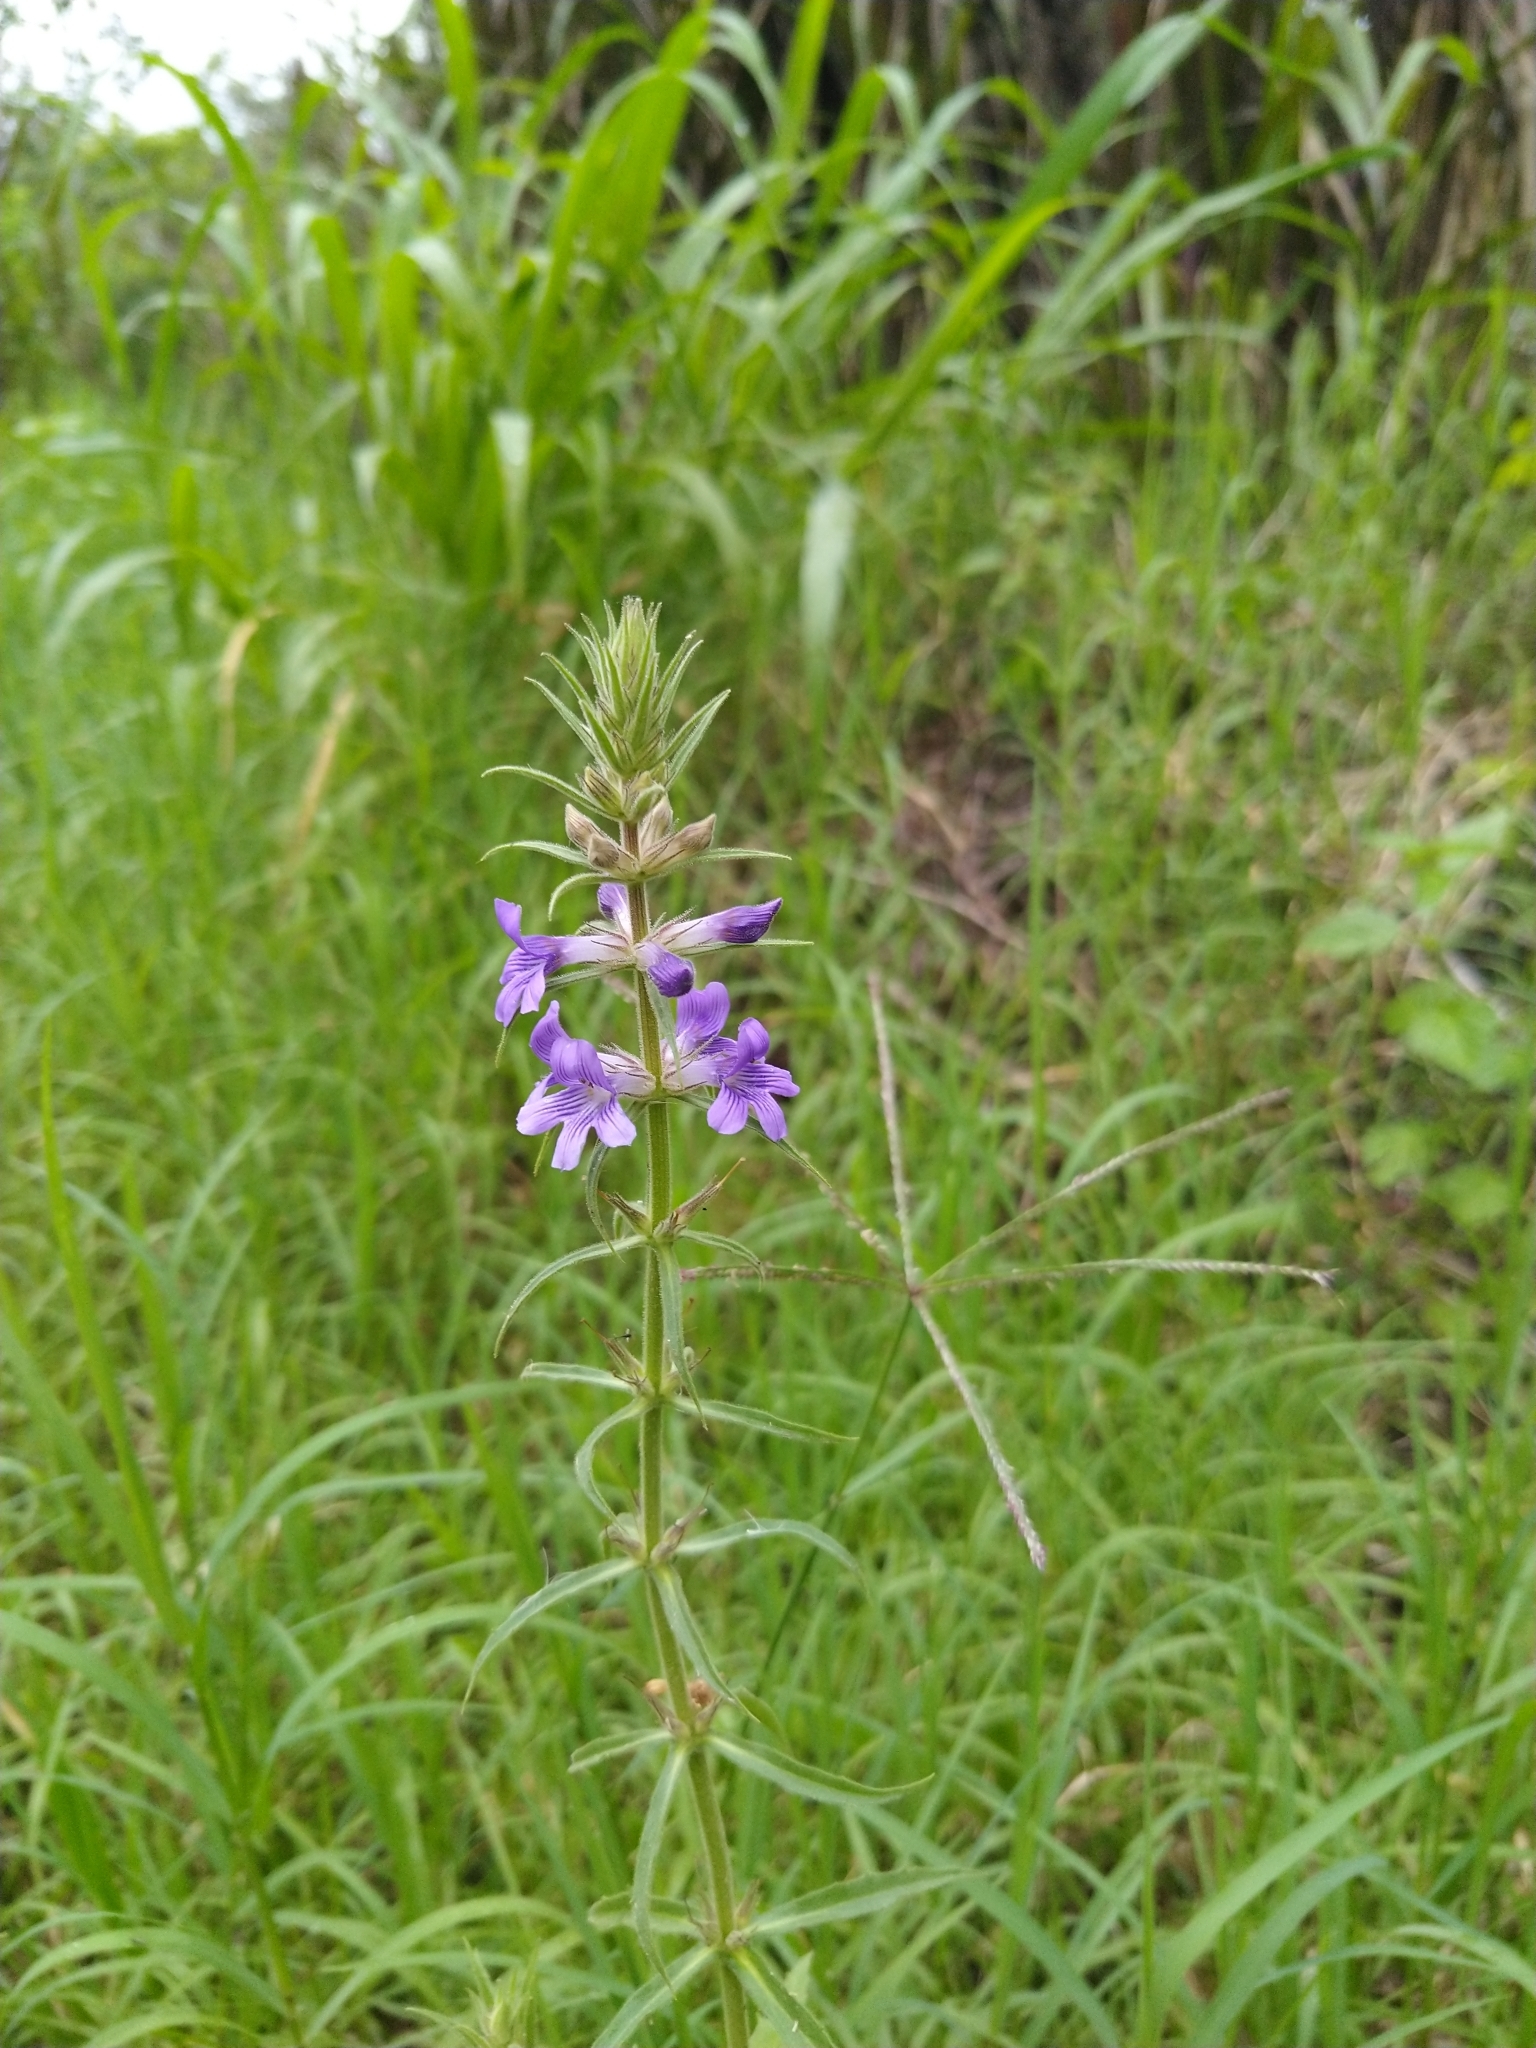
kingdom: Plantae
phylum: Tracheophyta
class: Magnoliopsida
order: Lamiales
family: Plantaginaceae
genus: Stemodia
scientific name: Stemodia palustris
